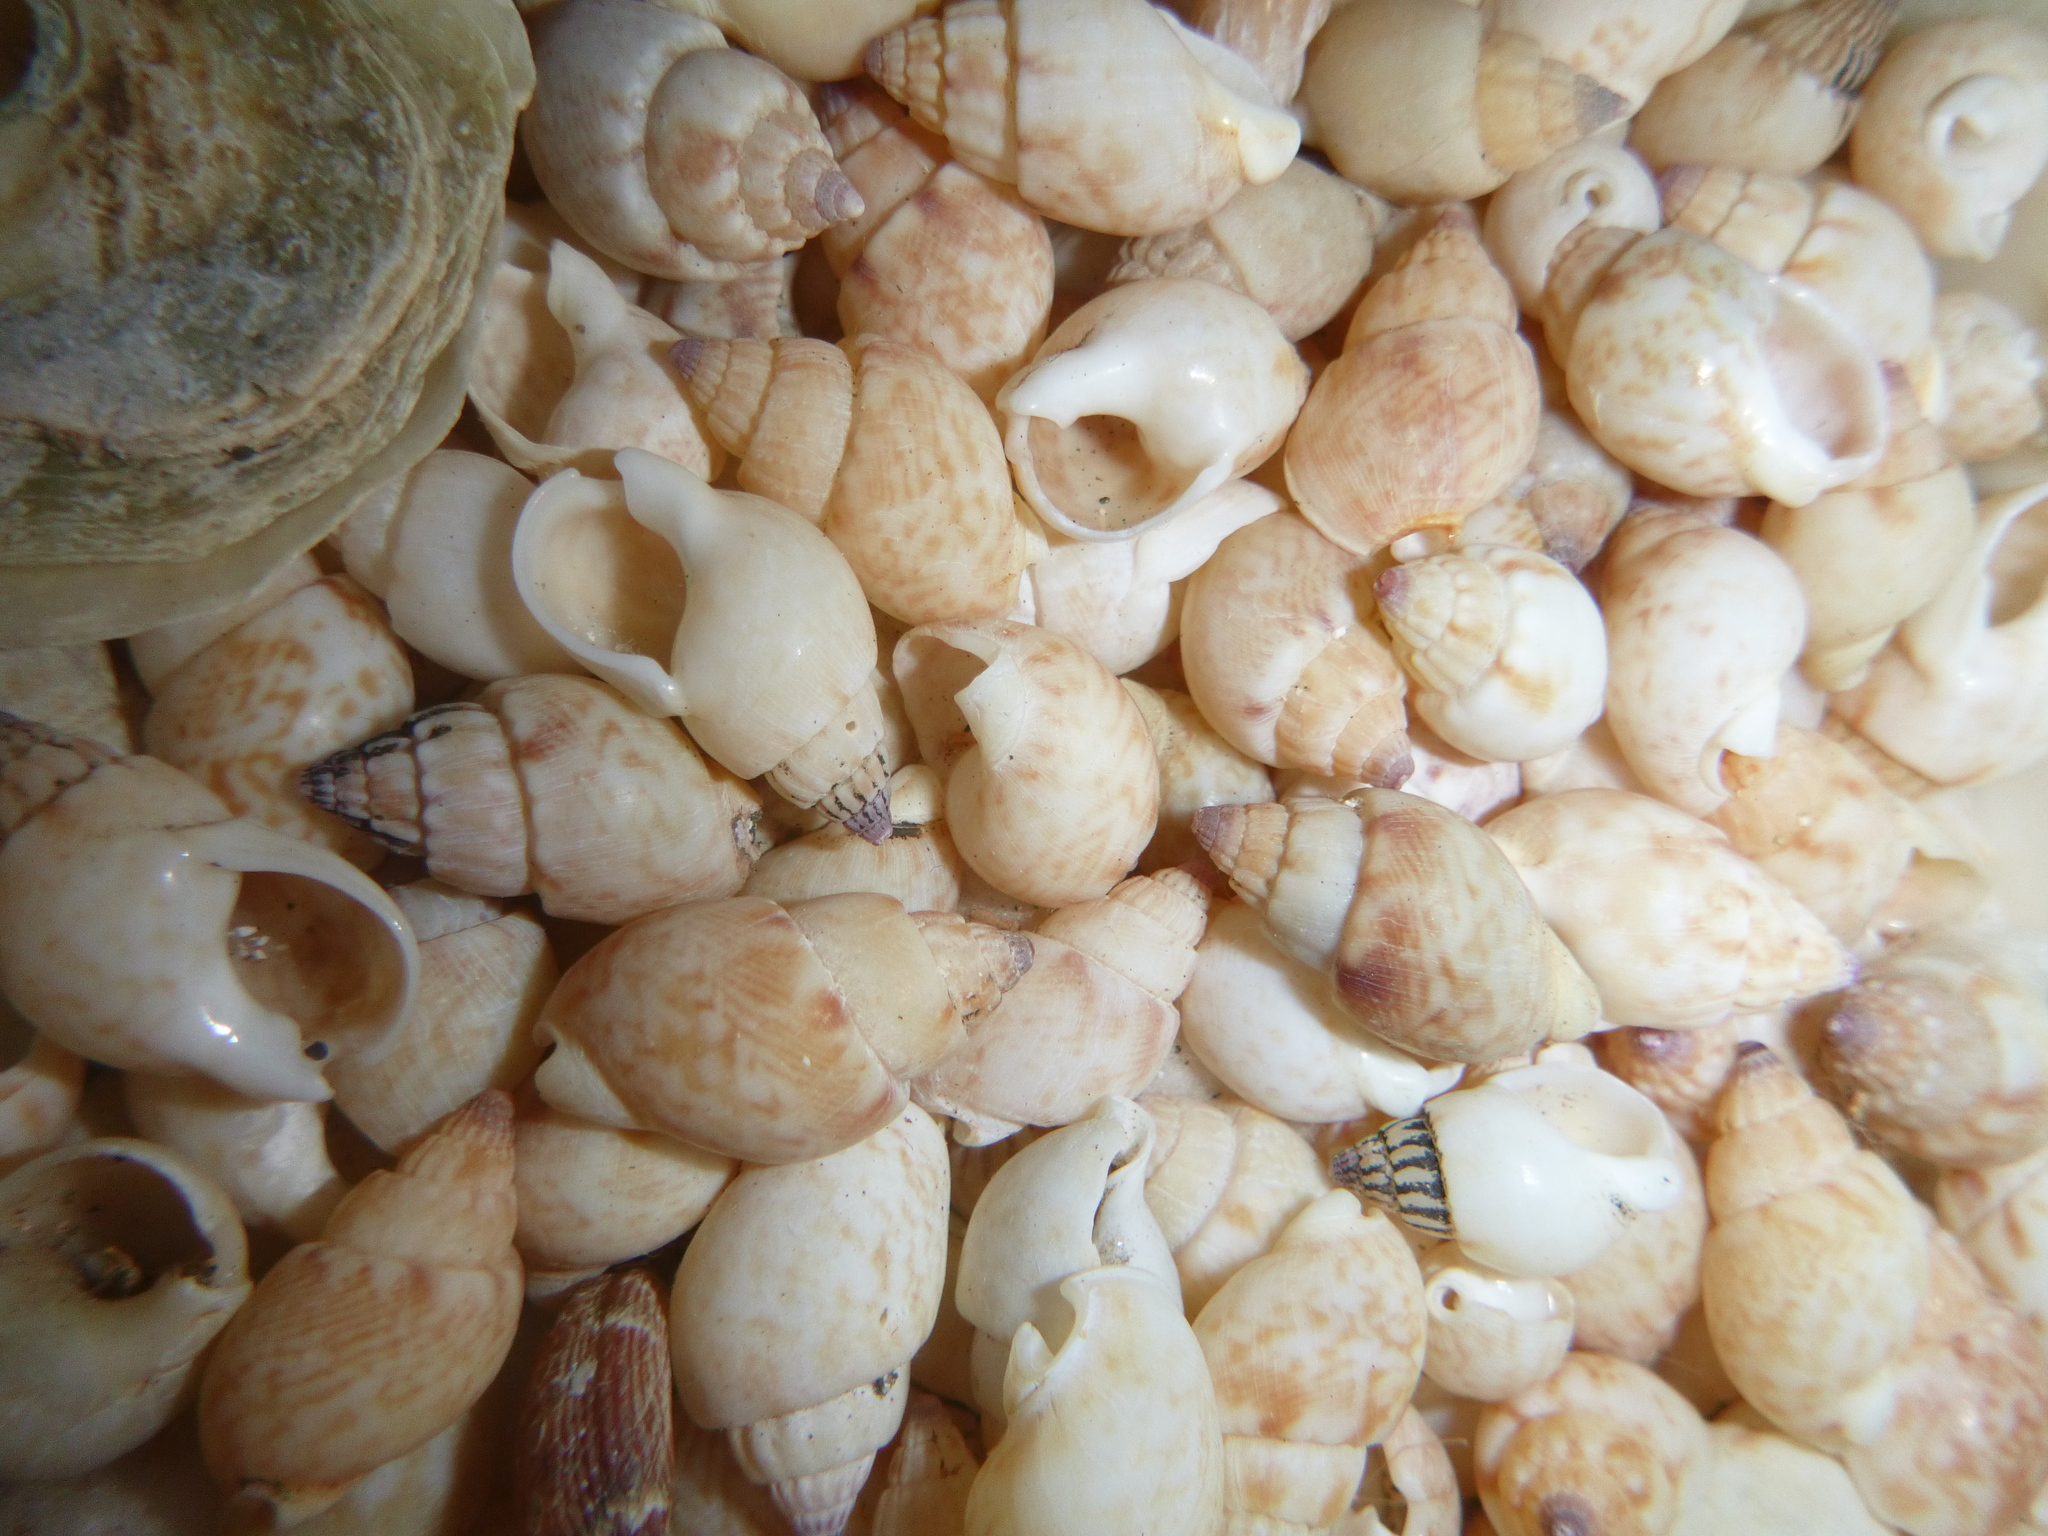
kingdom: Animalia
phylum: Mollusca
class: Gastropoda
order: Neogastropoda
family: Nassariidae
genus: Nassarius
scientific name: Nassarius spiratus
